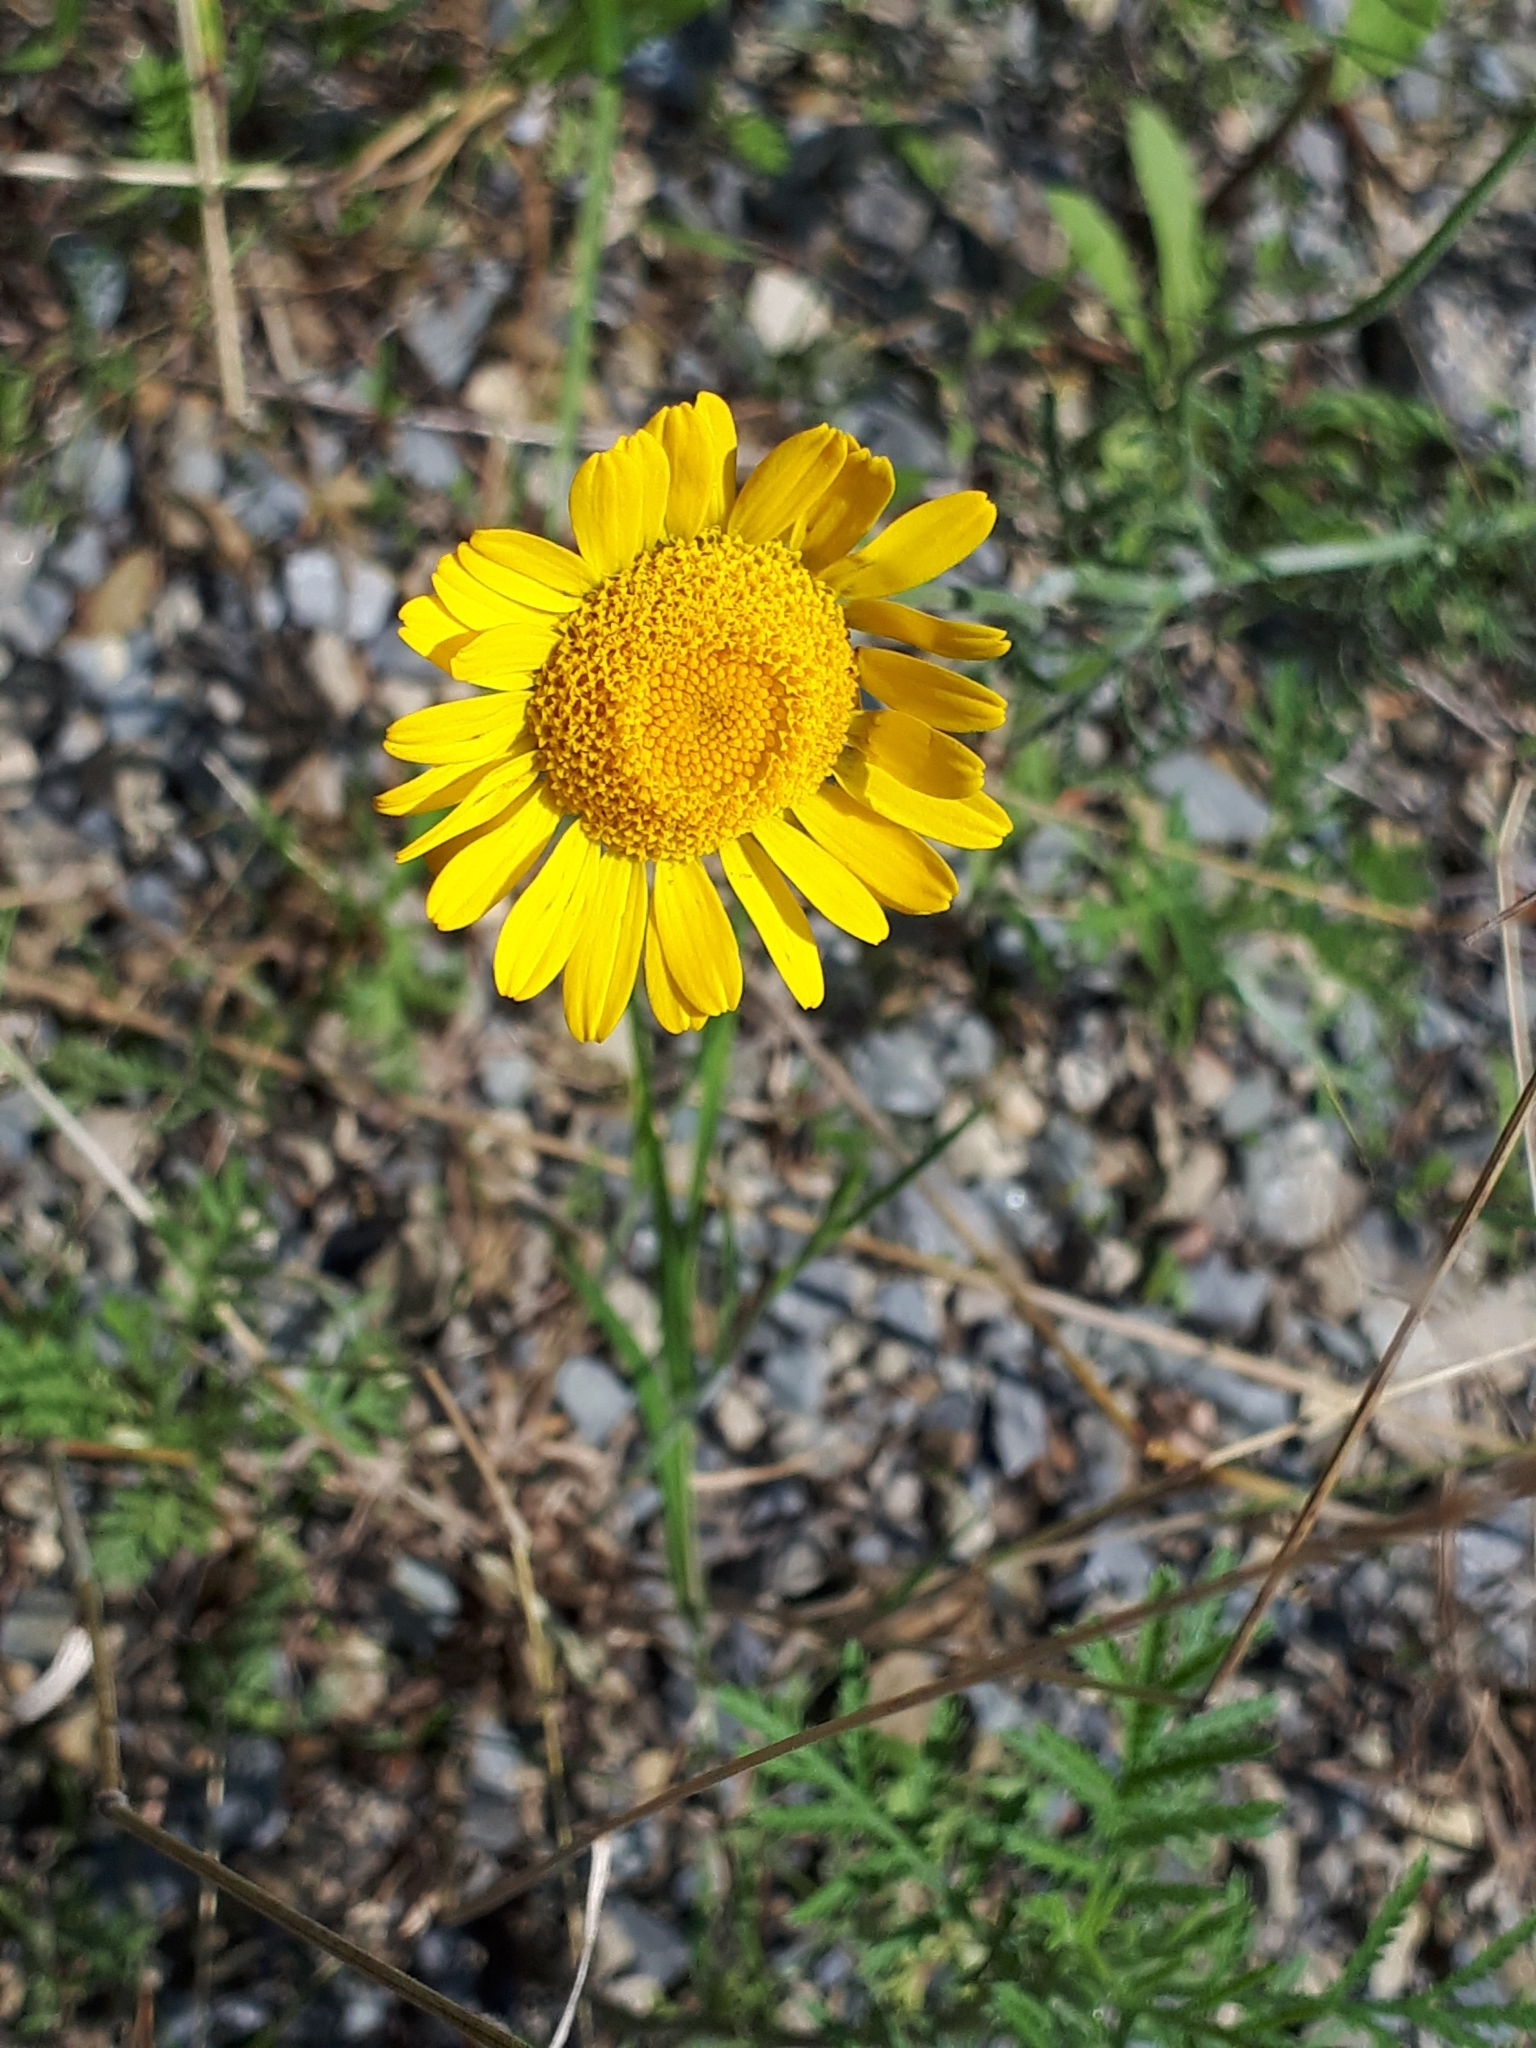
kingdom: Plantae
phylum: Tracheophyta
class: Magnoliopsida
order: Asterales
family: Asteraceae
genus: Cota
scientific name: Cota tinctoria
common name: Golden chamomile
